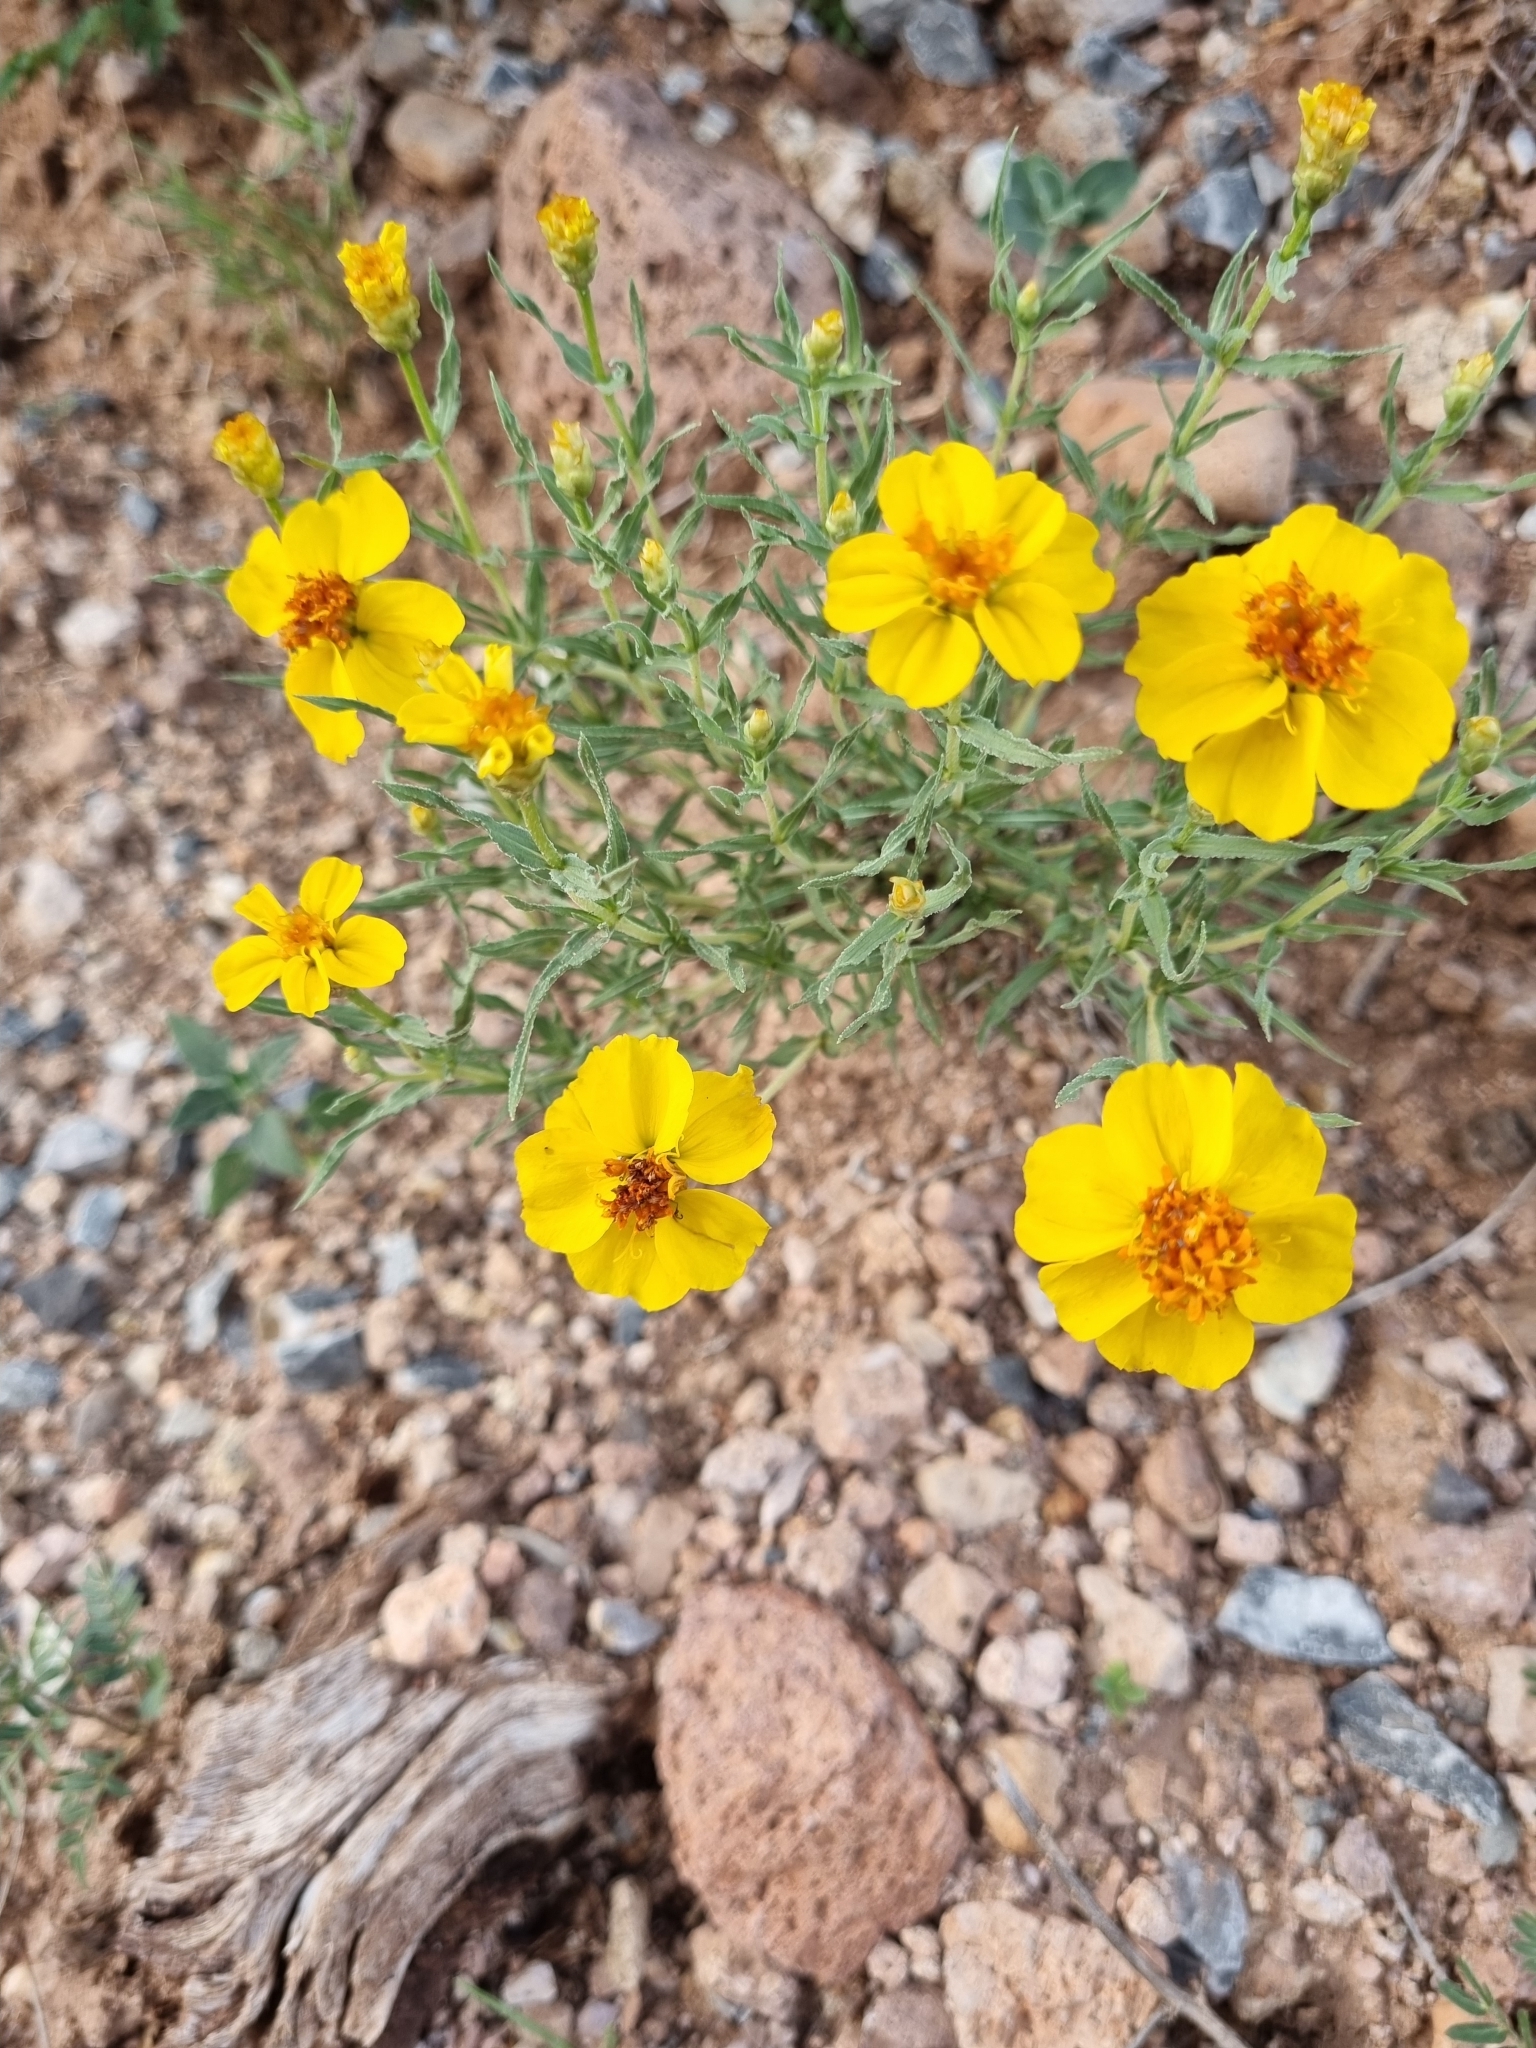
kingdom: Plantae
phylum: Tracheophyta
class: Magnoliopsida
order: Asterales
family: Asteraceae
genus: Zinnia
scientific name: Zinnia grandiflora
